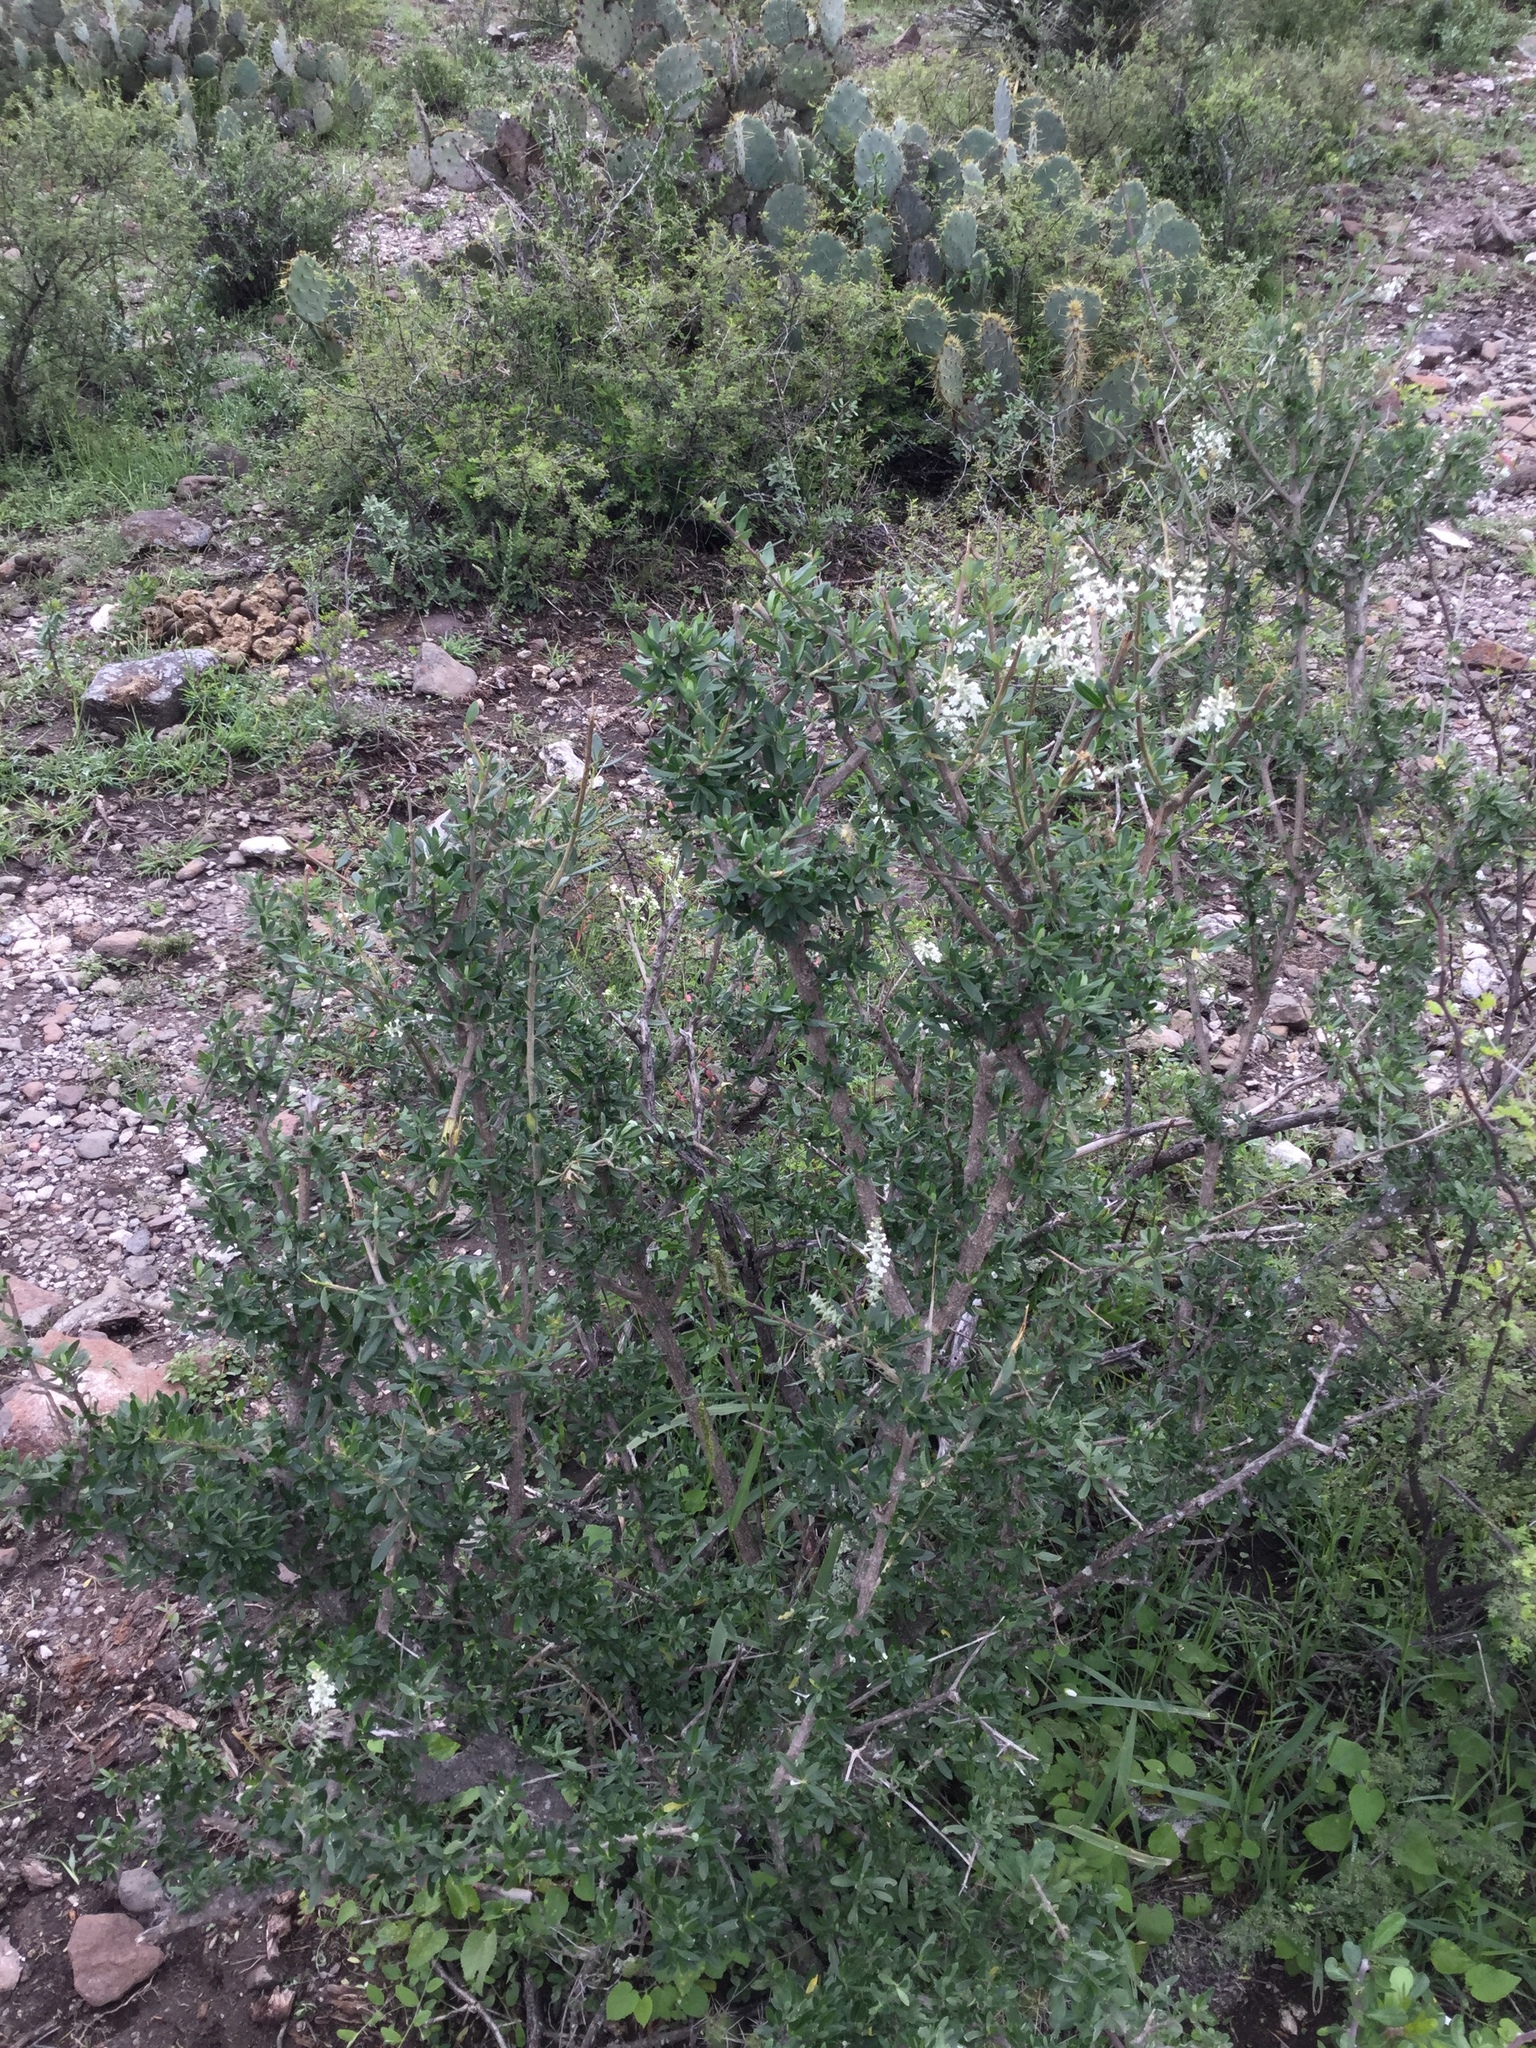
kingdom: Plantae
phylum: Tracheophyta
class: Magnoliopsida
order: Lamiales
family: Verbenaceae
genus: Aloysia
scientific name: Aloysia gratissima
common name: Common bee-brush
